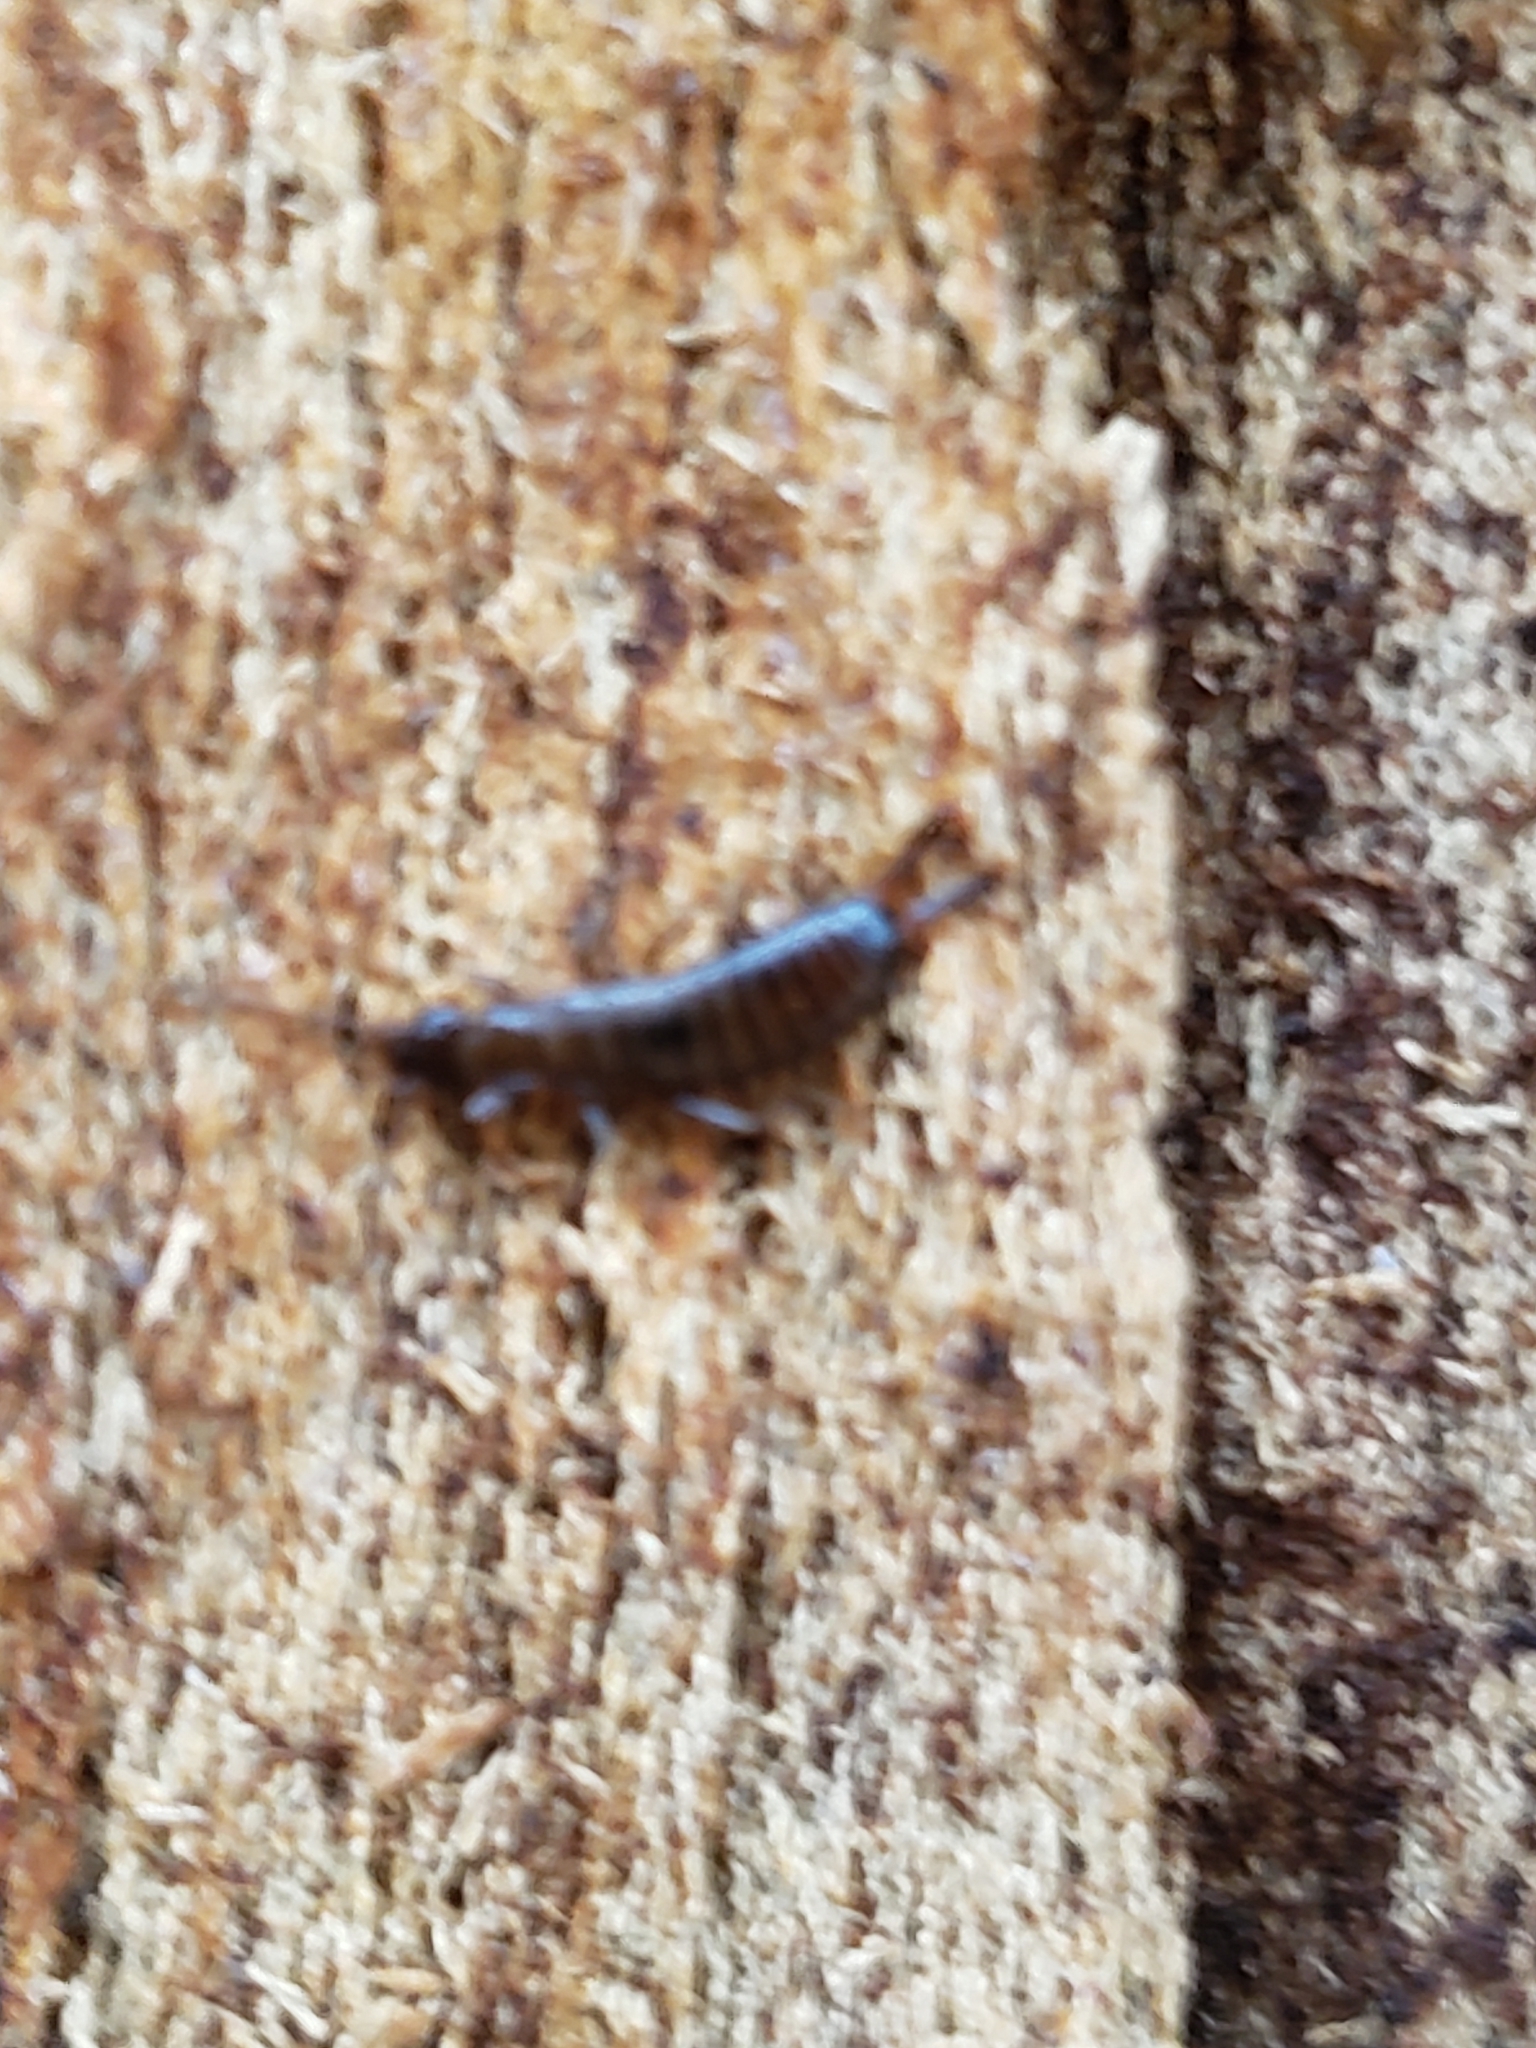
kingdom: Animalia
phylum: Arthropoda
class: Insecta
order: Dermaptera
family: Spongiphoridae
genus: Vostox
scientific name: Vostox brunneipennis
